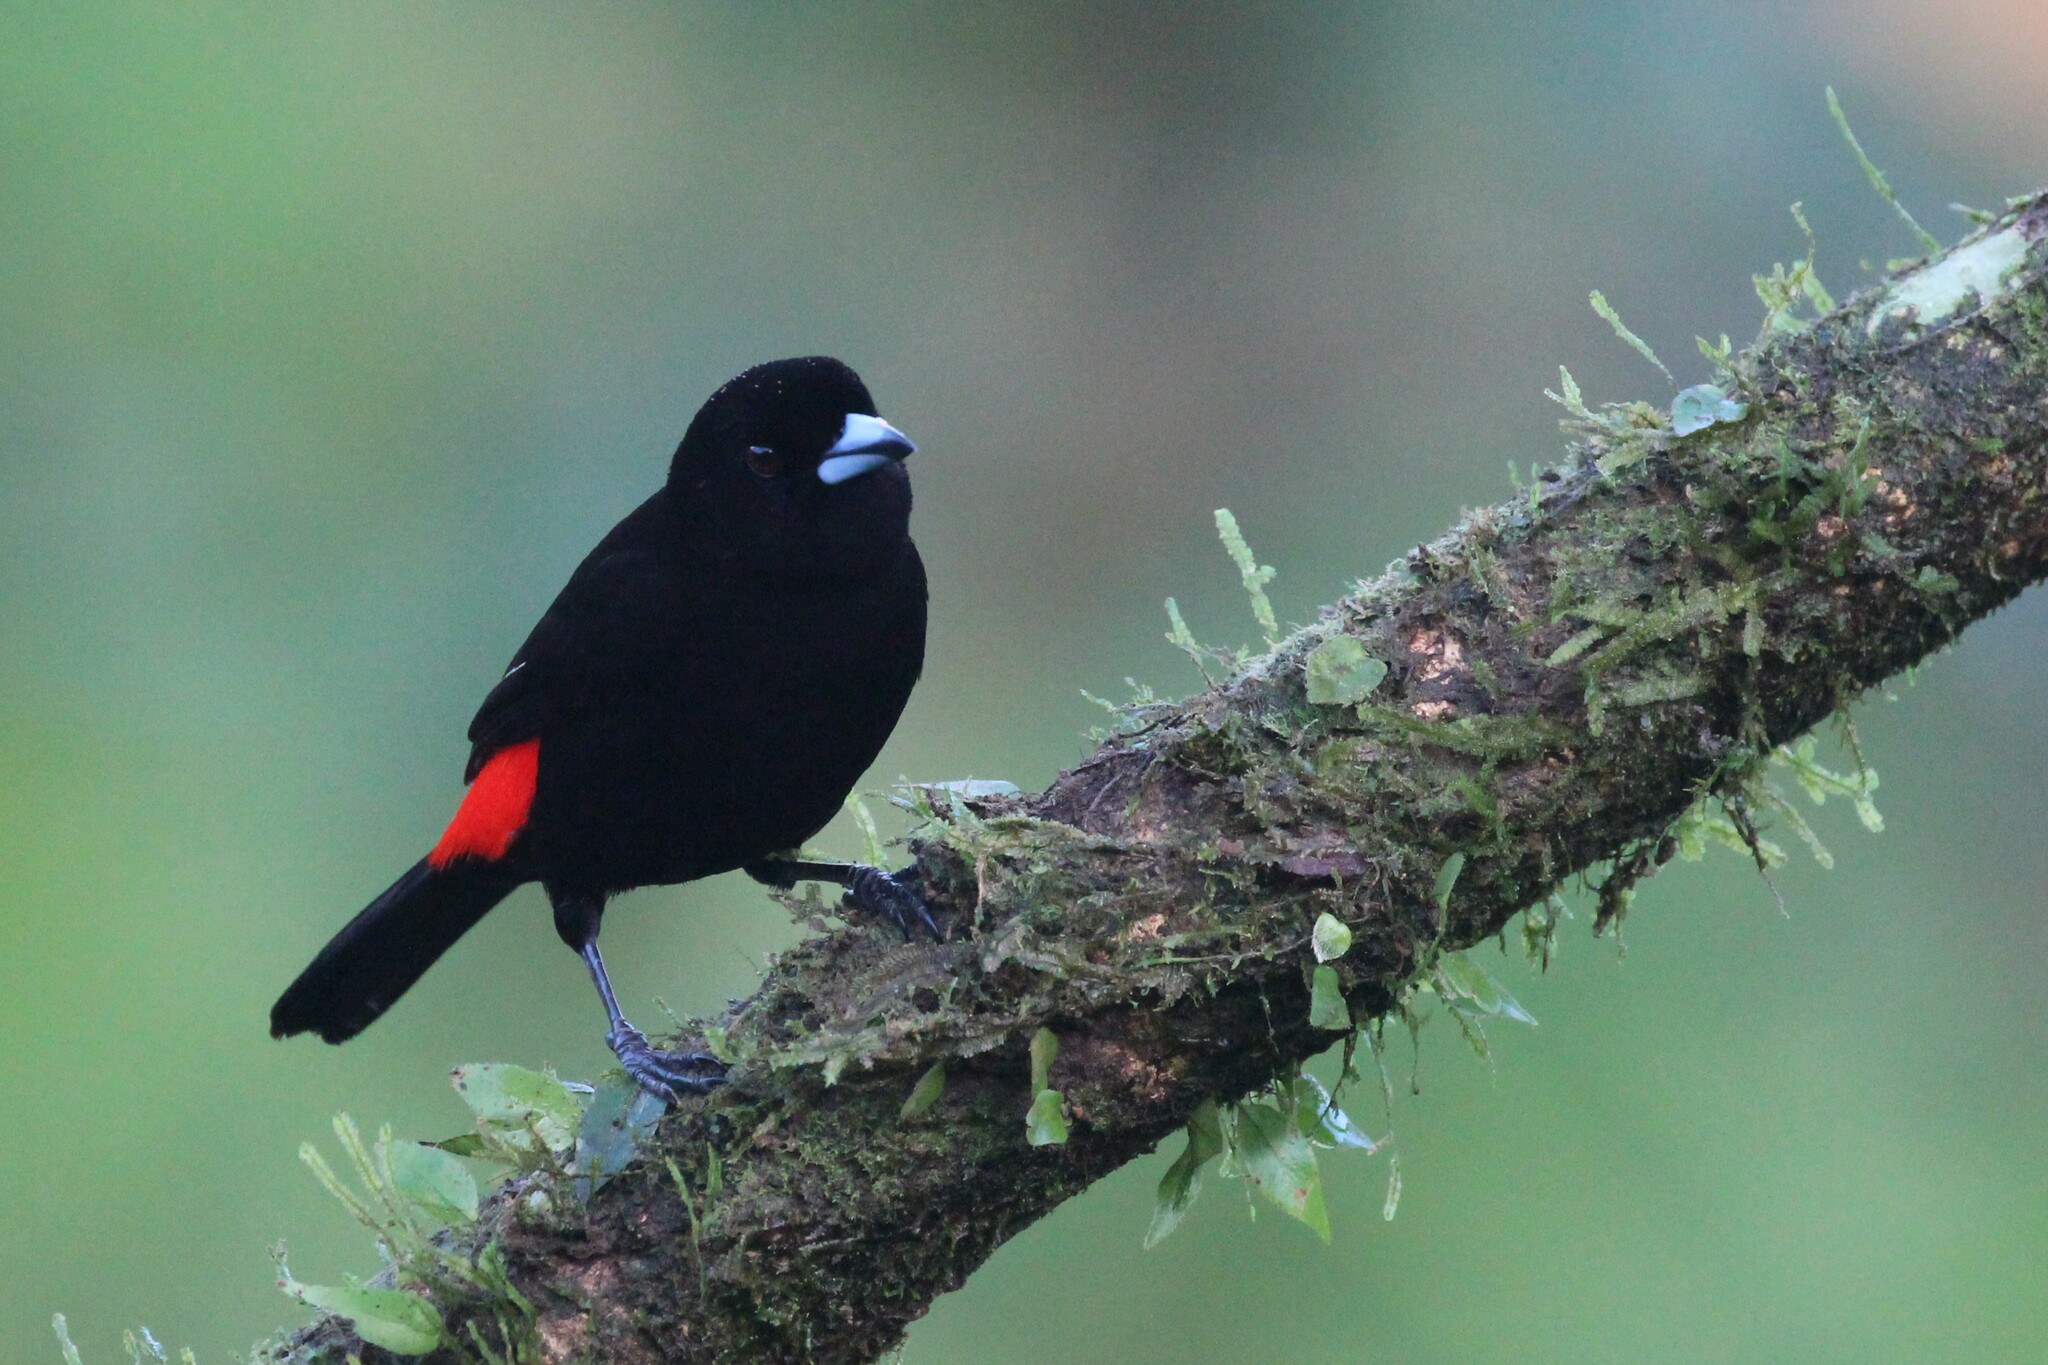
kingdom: Animalia
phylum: Chordata
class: Aves
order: Passeriformes
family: Thraupidae
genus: Ramphocelus
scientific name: Ramphocelus passerinii
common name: Passerini's tanager
